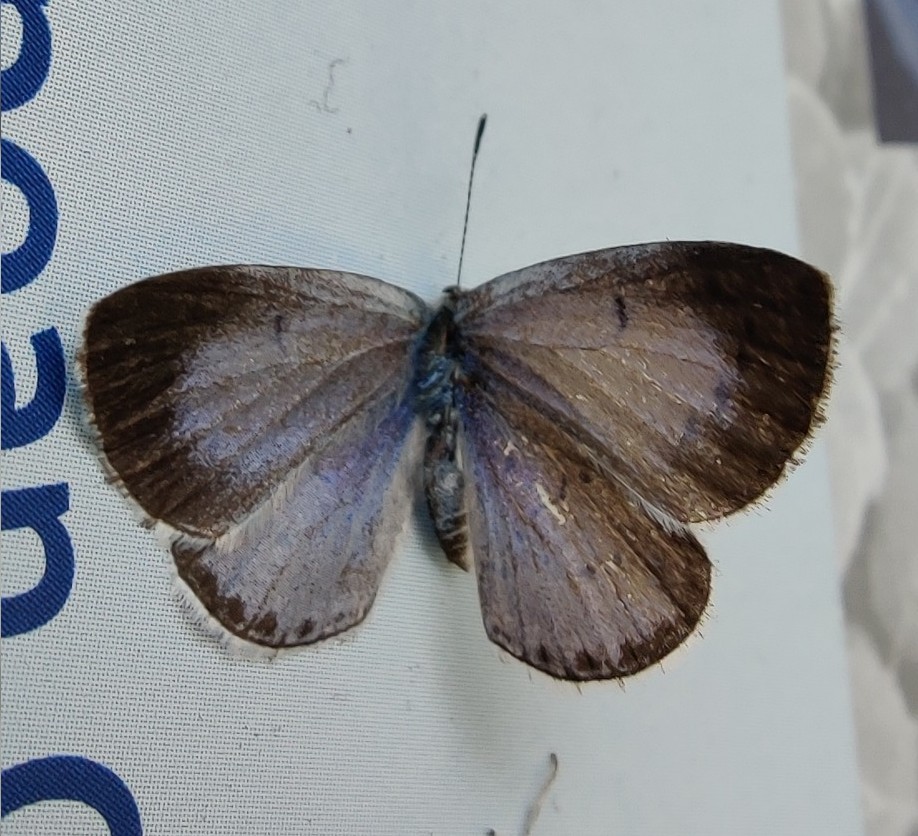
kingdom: Animalia
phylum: Arthropoda
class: Insecta
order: Lepidoptera
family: Lycaenidae
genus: Celastrina
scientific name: Celastrina argiolus
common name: Holly blue
